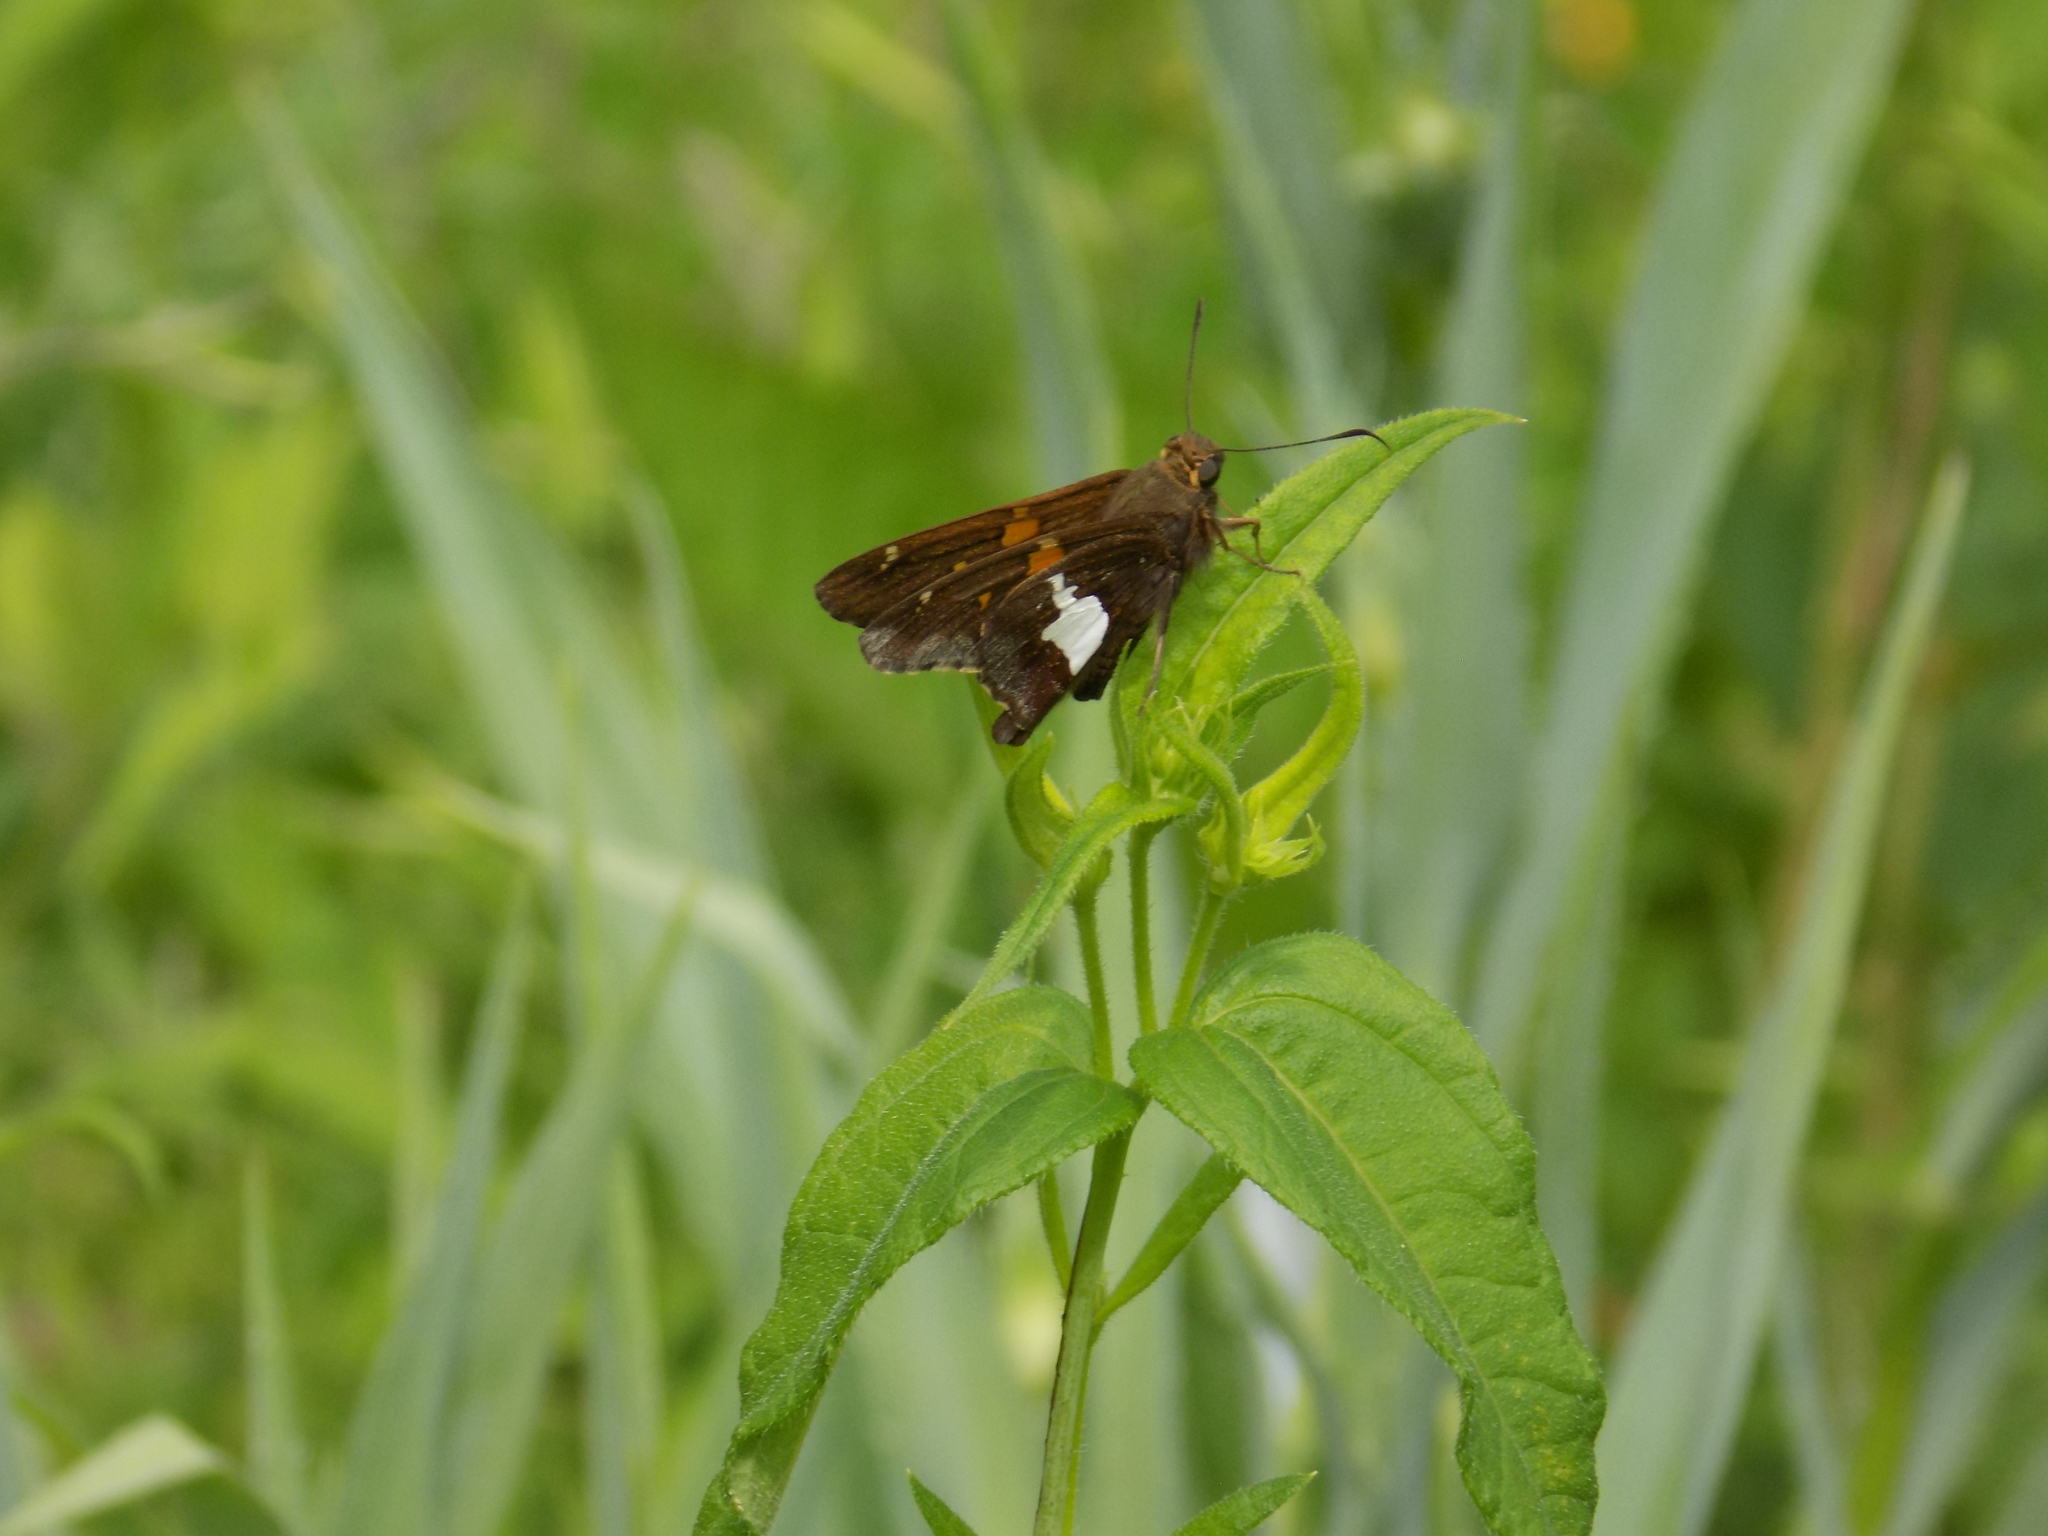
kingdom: Animalia
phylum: Arthropoda
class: Insecta
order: Lepidoptera
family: Hesperiidae
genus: Epargyreus
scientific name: Epargyreus clarus
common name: Silver-spotted skipper
